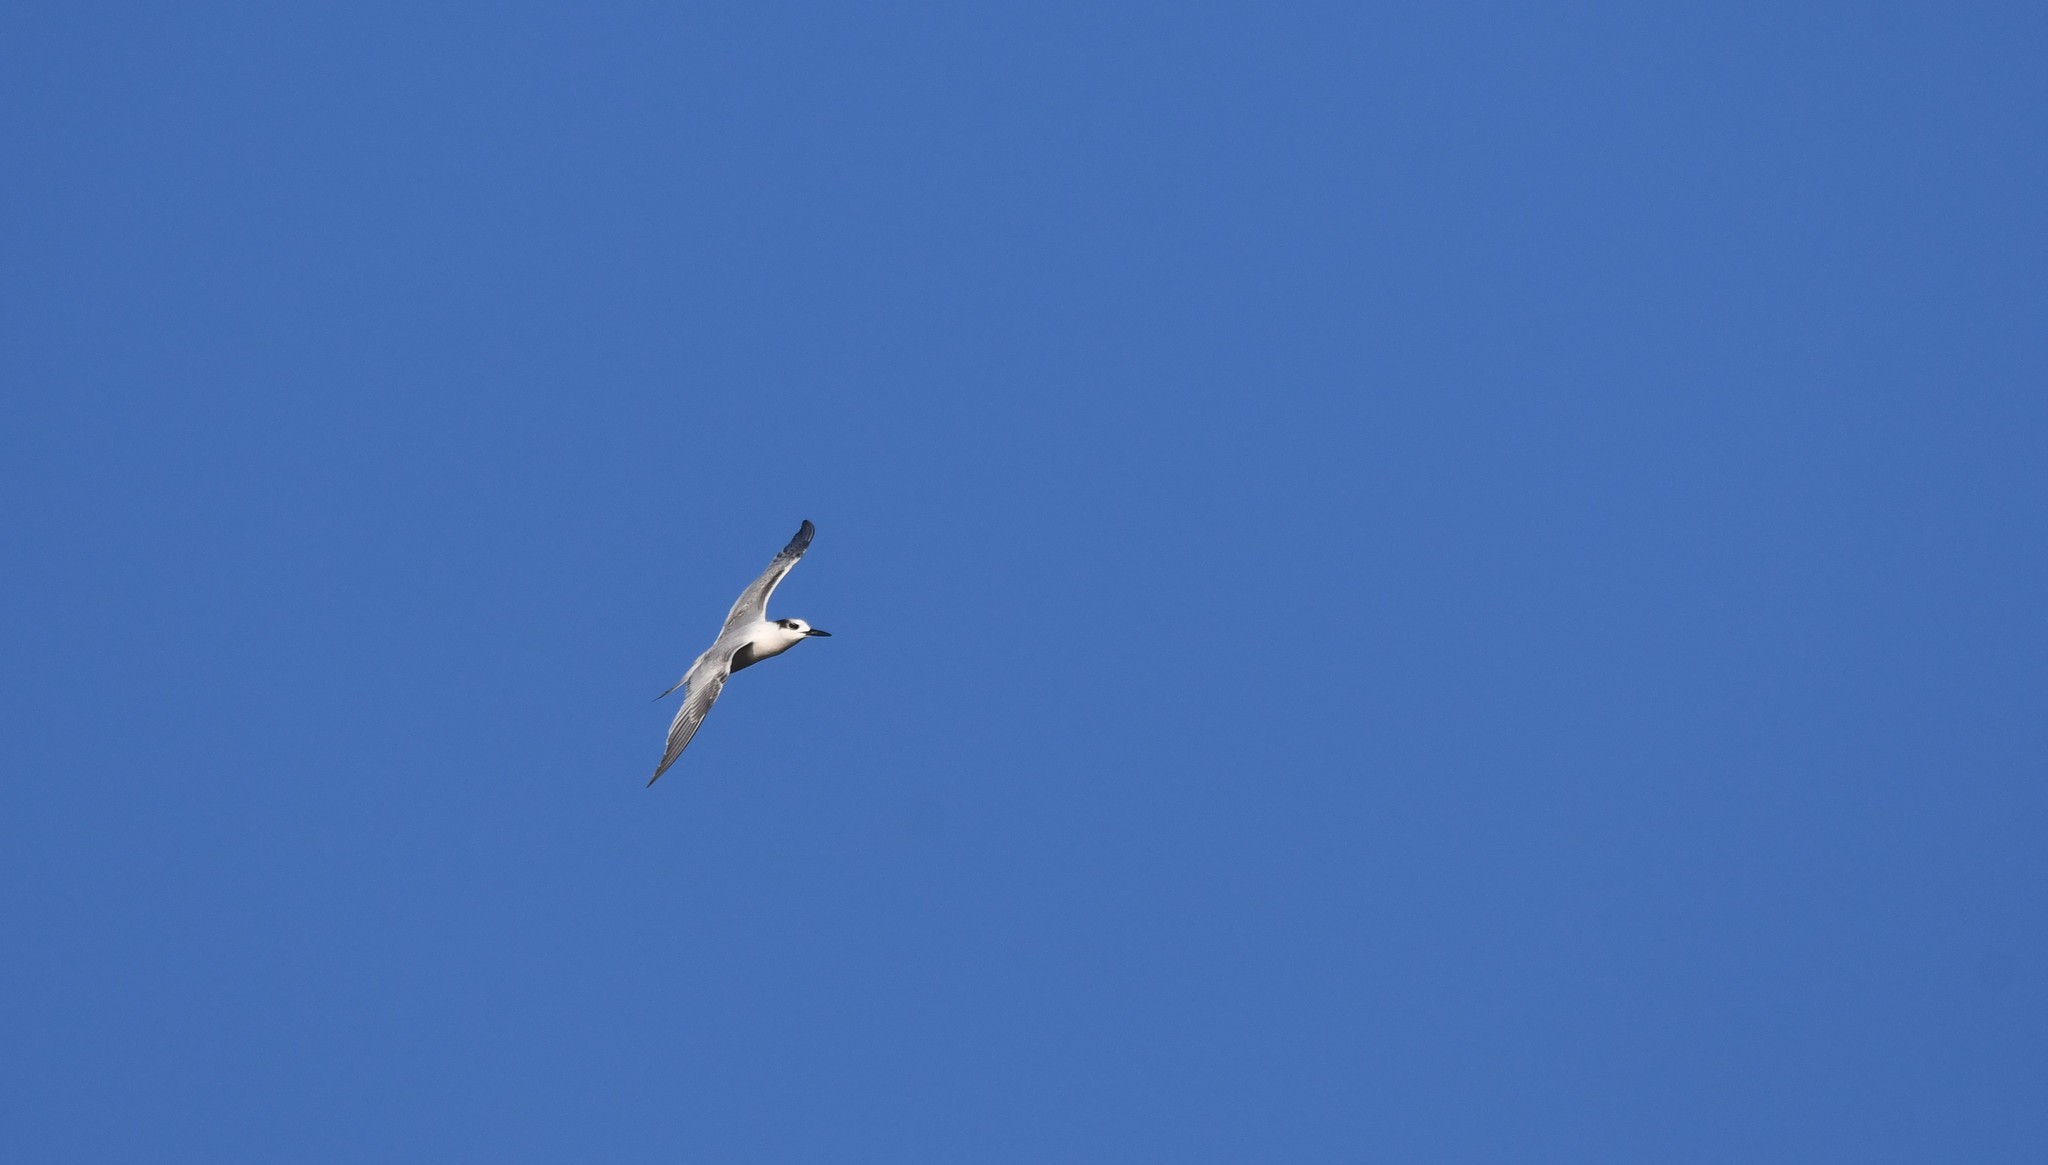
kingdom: Animalia
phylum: Chordata
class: Aves
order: Charadriiformes
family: Laridae
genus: Thalasseus
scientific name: Thalasseus sandvicensis
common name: Sandwich tern
